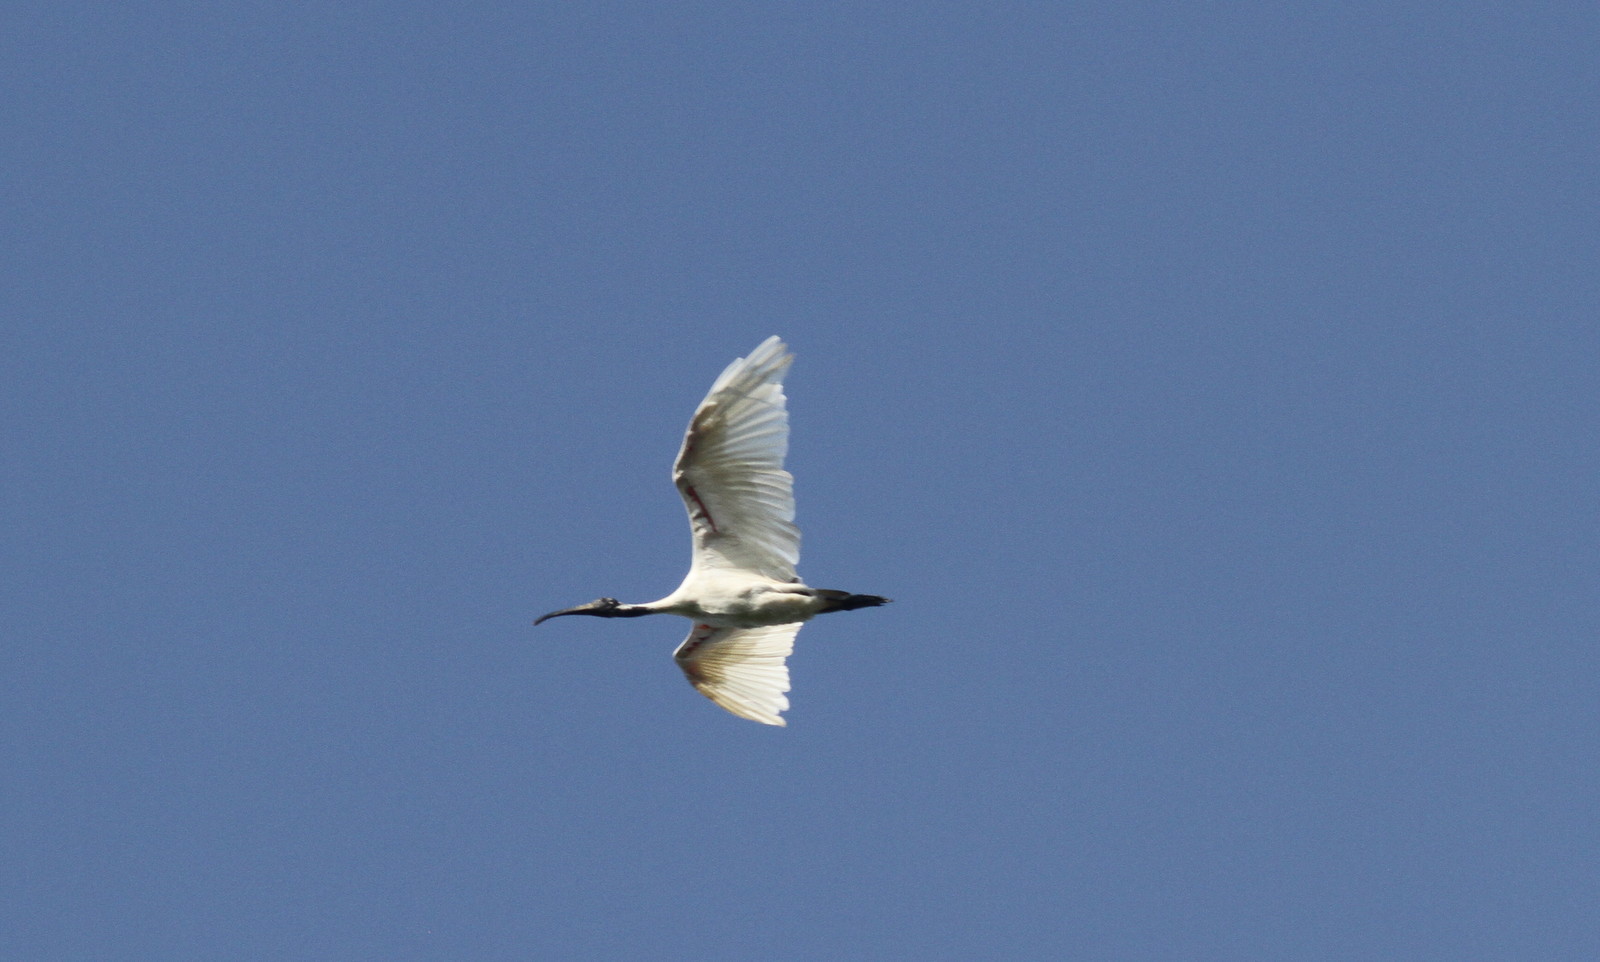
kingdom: Animalia
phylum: Chordata
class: Aves
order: Pelecaniformes
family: Threskiornithidae
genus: Threskiornis
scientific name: Threskiornis melanocephalus
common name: Black-headed ibis
